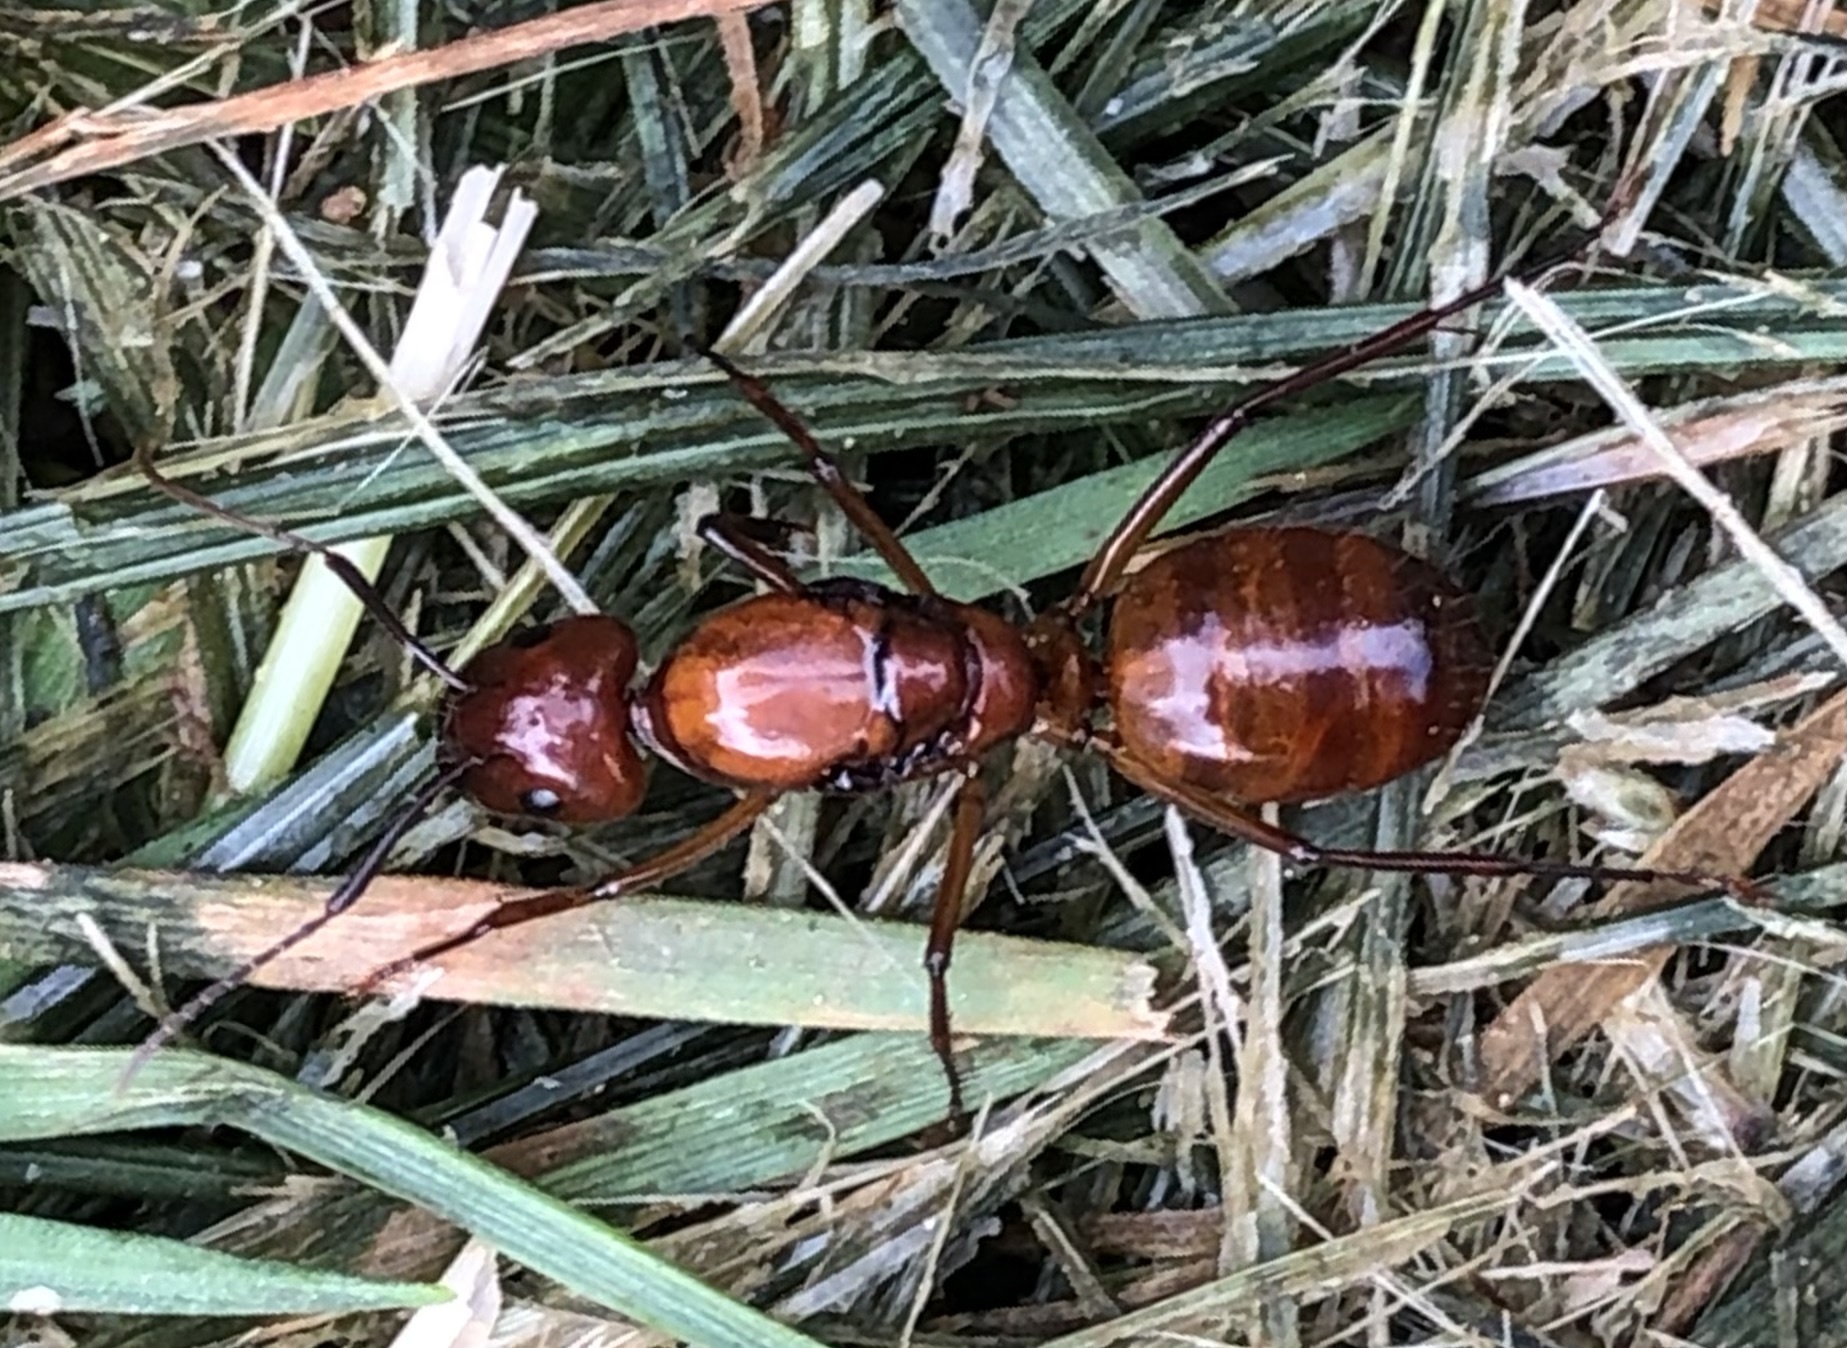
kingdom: Animalia
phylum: Arthropoda
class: Insecta
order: Hymenoptera
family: Formicidae
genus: Camponotus
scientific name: Camponotus castaneus
